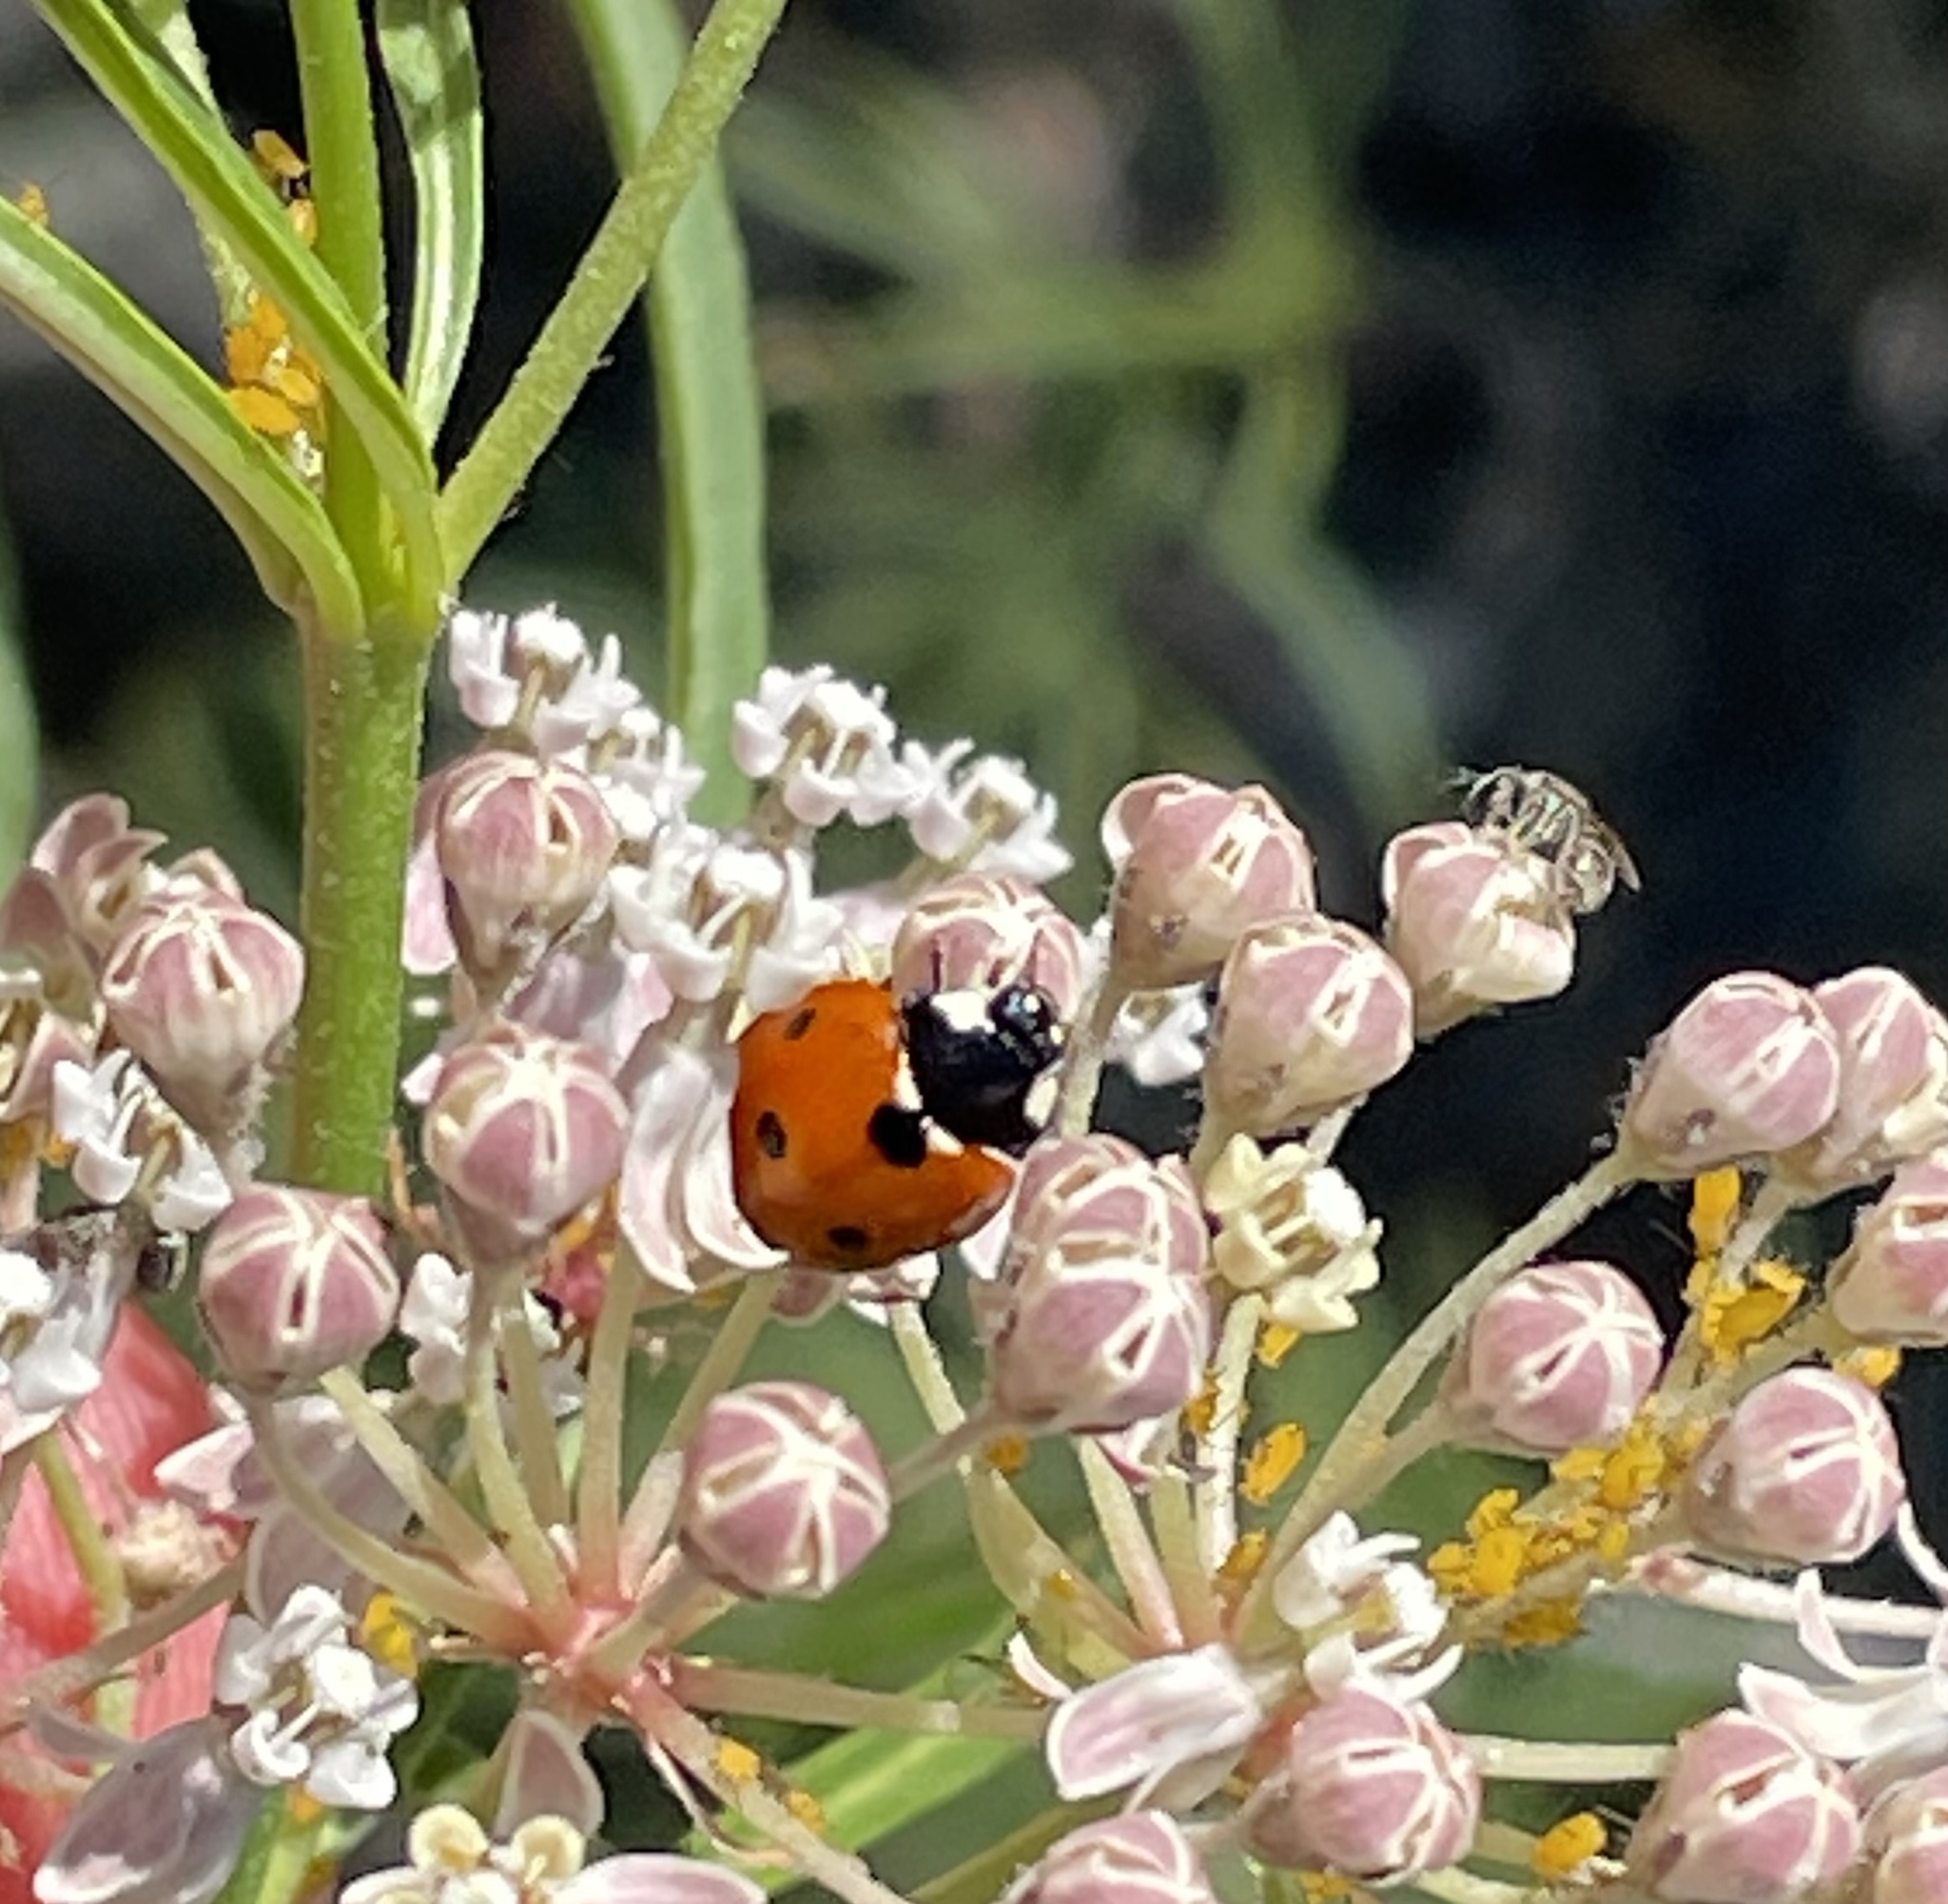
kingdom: Animalia
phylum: Arthropoda
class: Insecta
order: Coleoptera
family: Coccinellidae
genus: Coccinella
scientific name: Coccinella septempunctata
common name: Sevenspotted lady beetle
